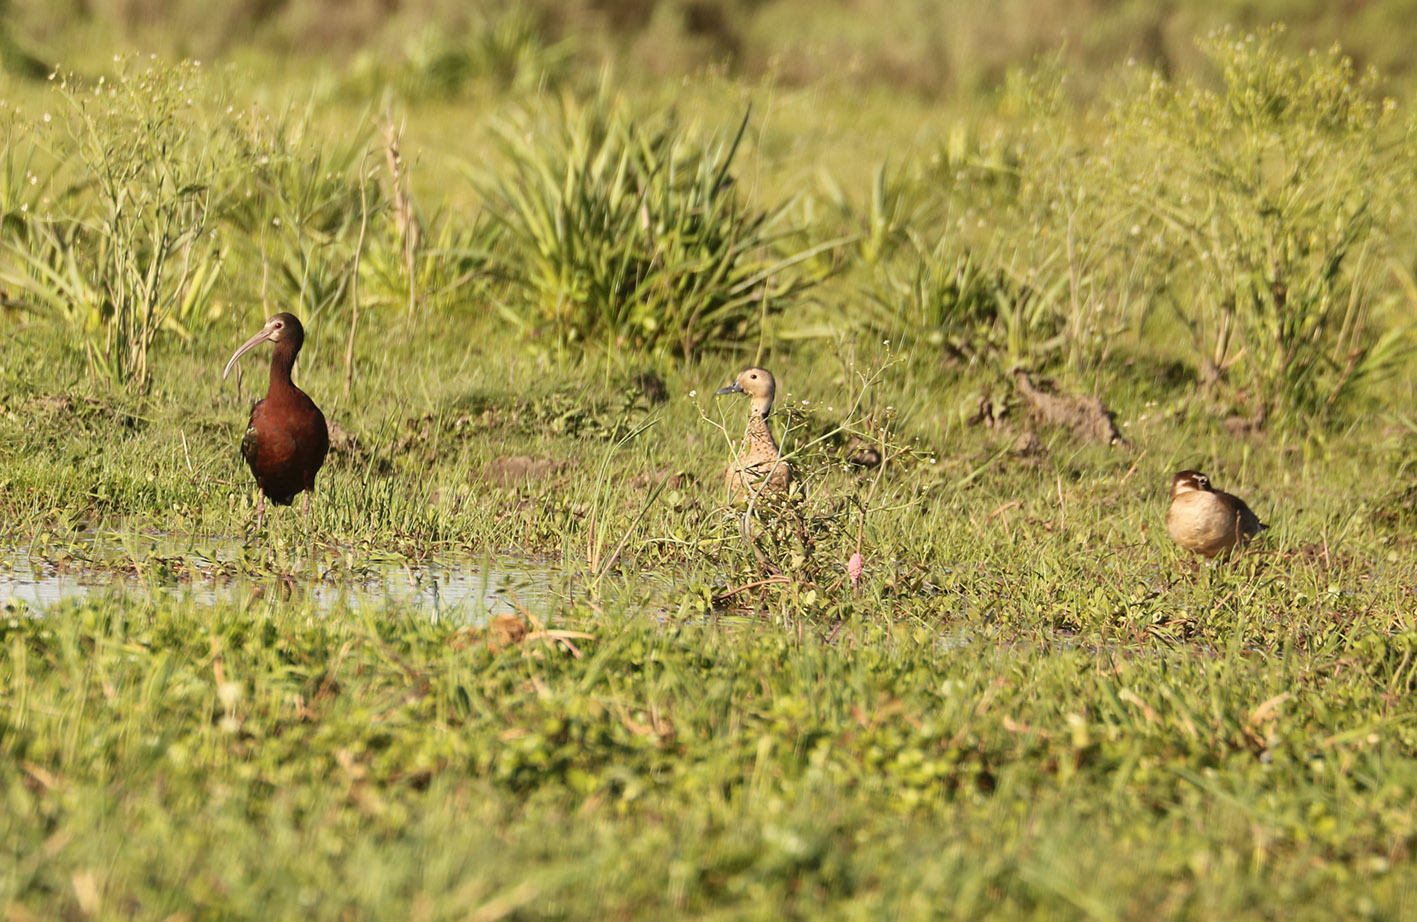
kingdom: Animalia
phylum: Chordata
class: Aves
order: Anseriformes
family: Anatidae
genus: Callonetta
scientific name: Callonetta leucophrys
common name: Ringed teal
